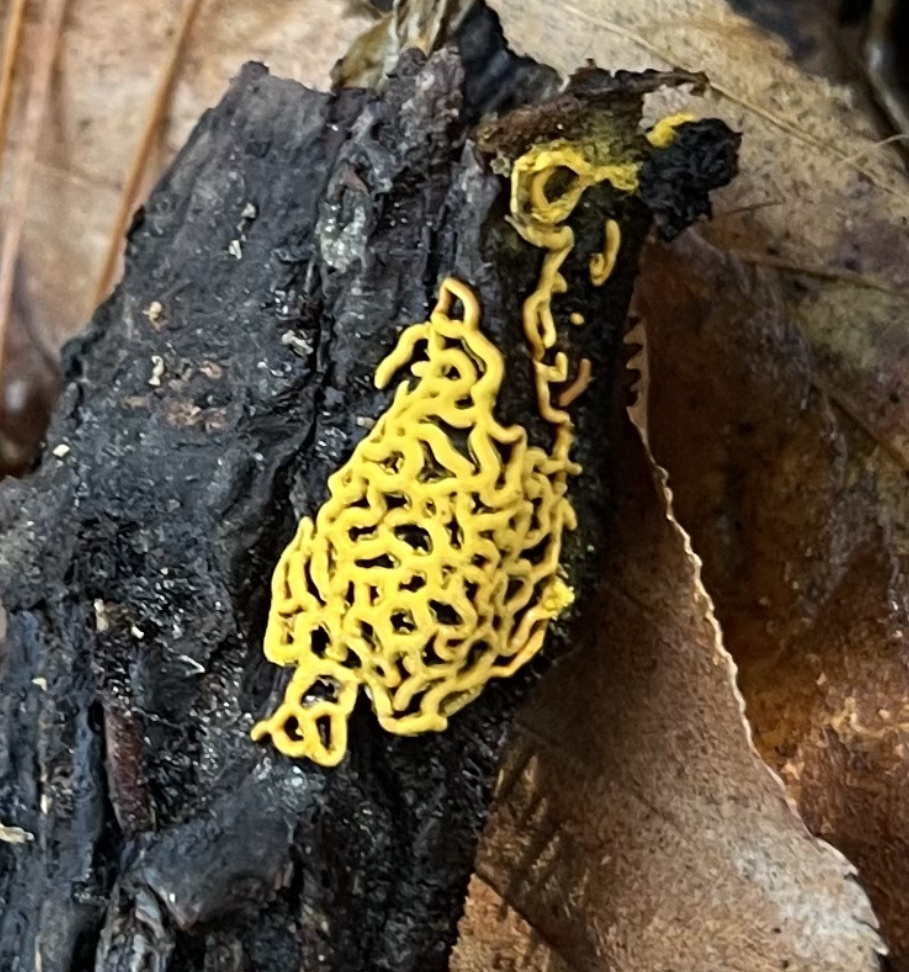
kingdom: Protozoa
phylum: Mycetozoa
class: Myxomycetes
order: Trichiales
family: Arcyriaceae
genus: Hemitrichia
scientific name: Hemitrichia serpula
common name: Pretzel slime mold
